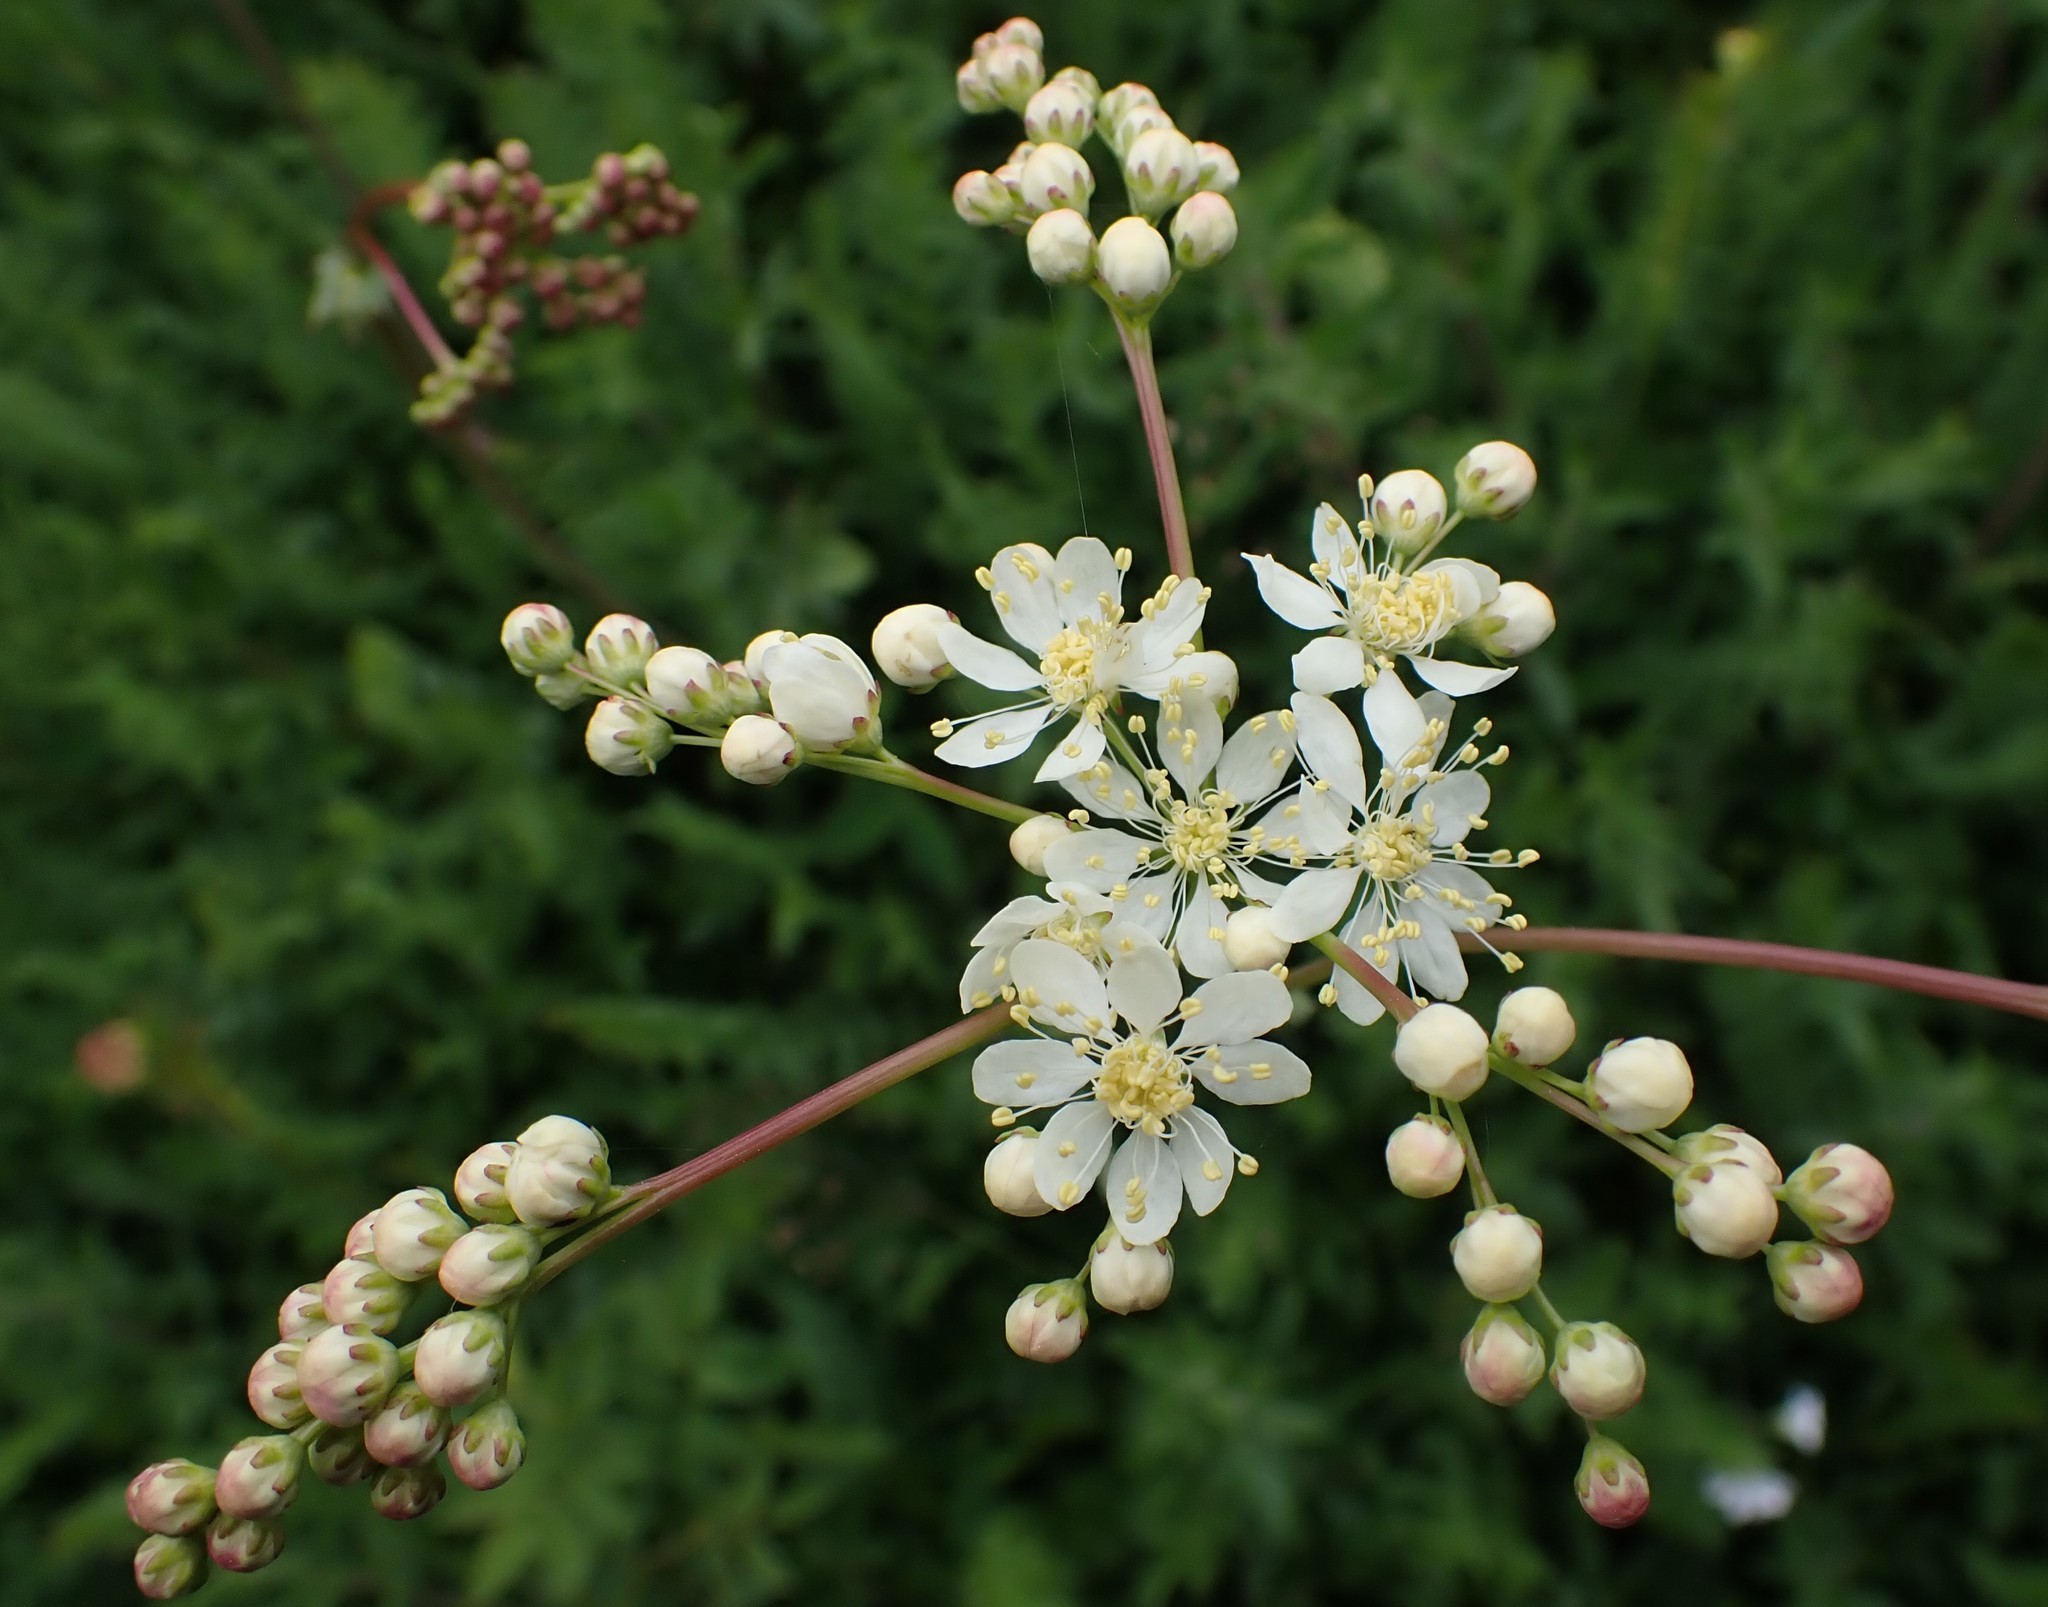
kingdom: Plantae
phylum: Tracheophyta
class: Magnoliopsida
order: Rosales
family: Rosaceae
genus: Filipendula
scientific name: Filipendula vulgaris
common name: Dropwort
